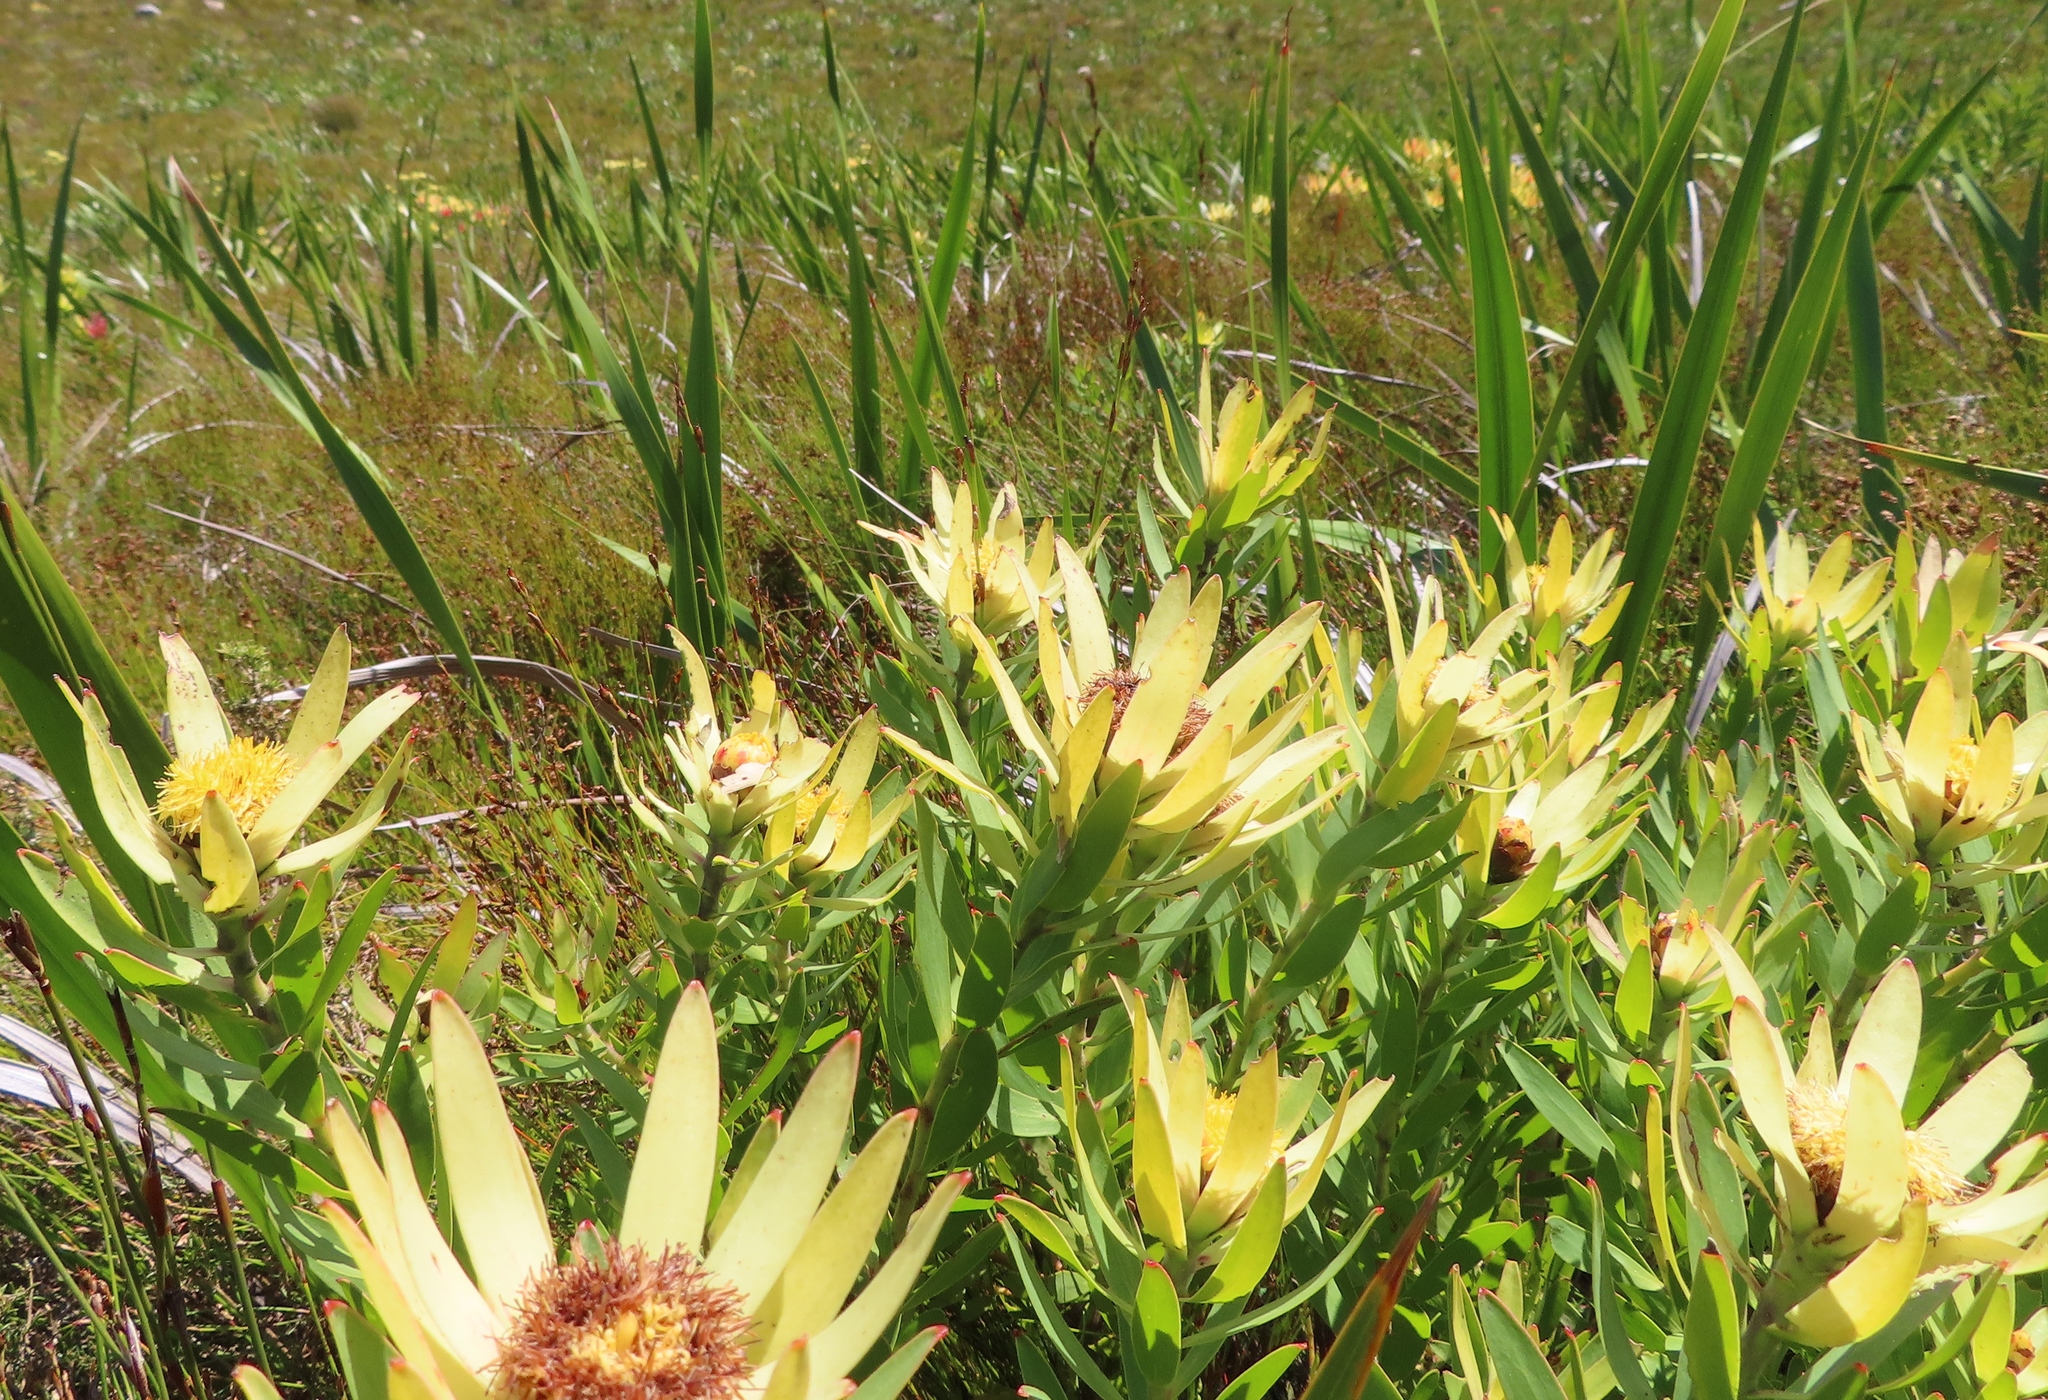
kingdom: Plantae
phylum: Tracheophyta
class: Magnoliopsida
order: Proteales
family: Proteaceae
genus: Leucadendron
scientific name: Leucadendron sessile
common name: Western sunbush
